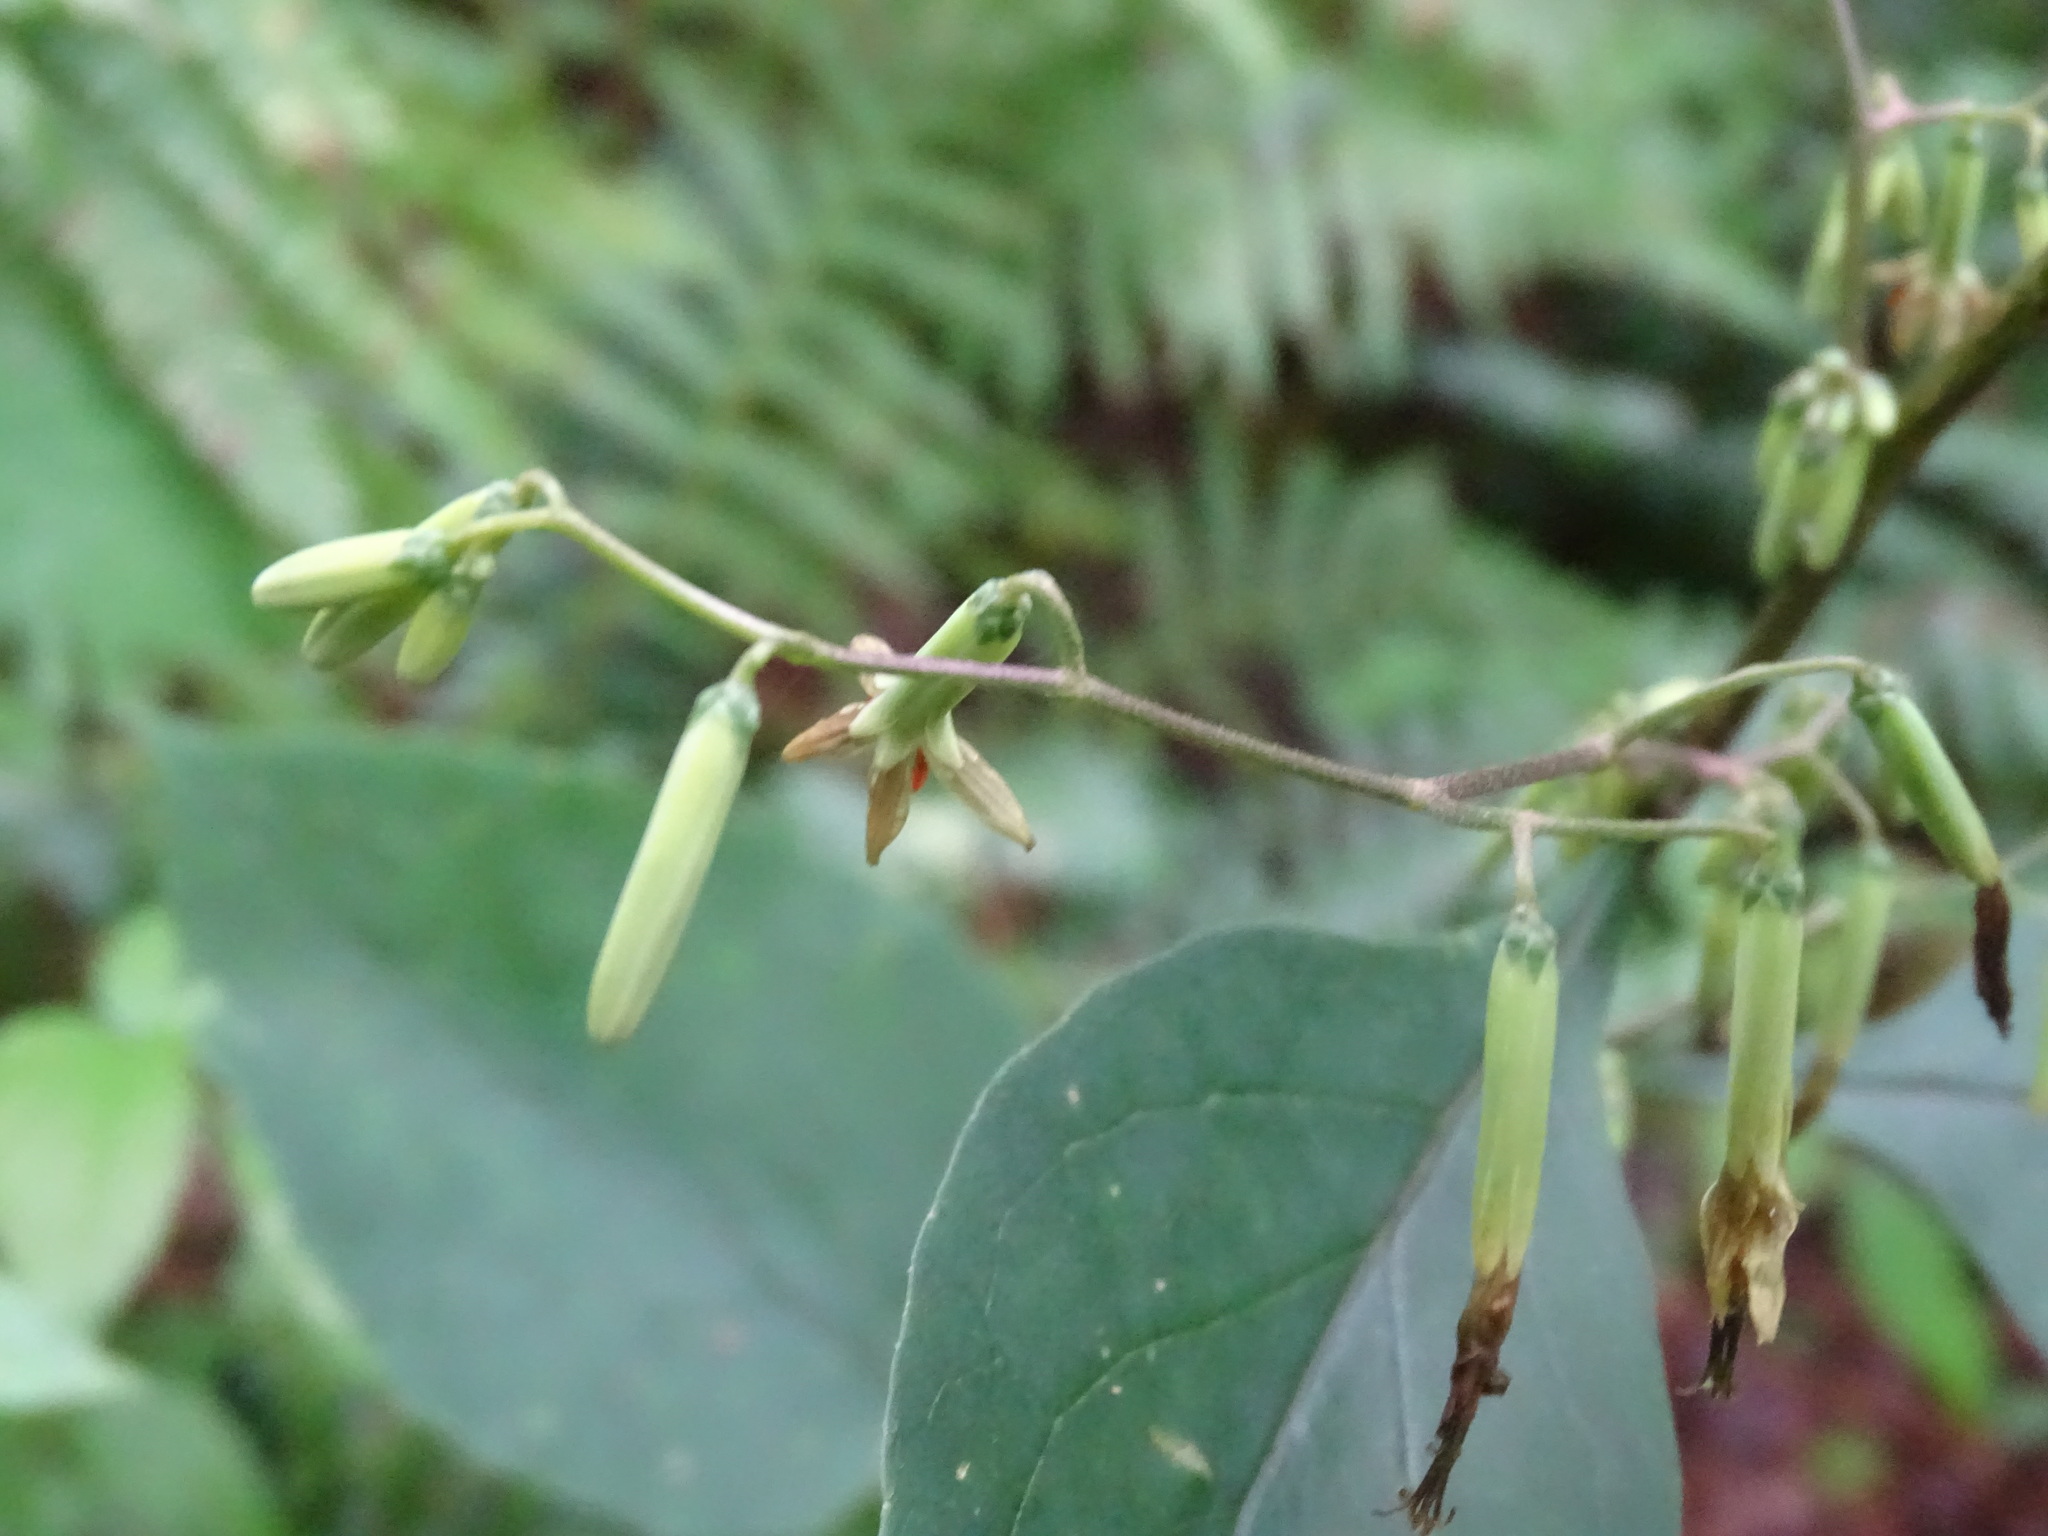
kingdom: Plantae
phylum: Tracheophyta
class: Magnoliopsida
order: Asterales
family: Asteraceae
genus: Nabalus
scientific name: Nabalus altissima
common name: Tall rattlesnakeroot
